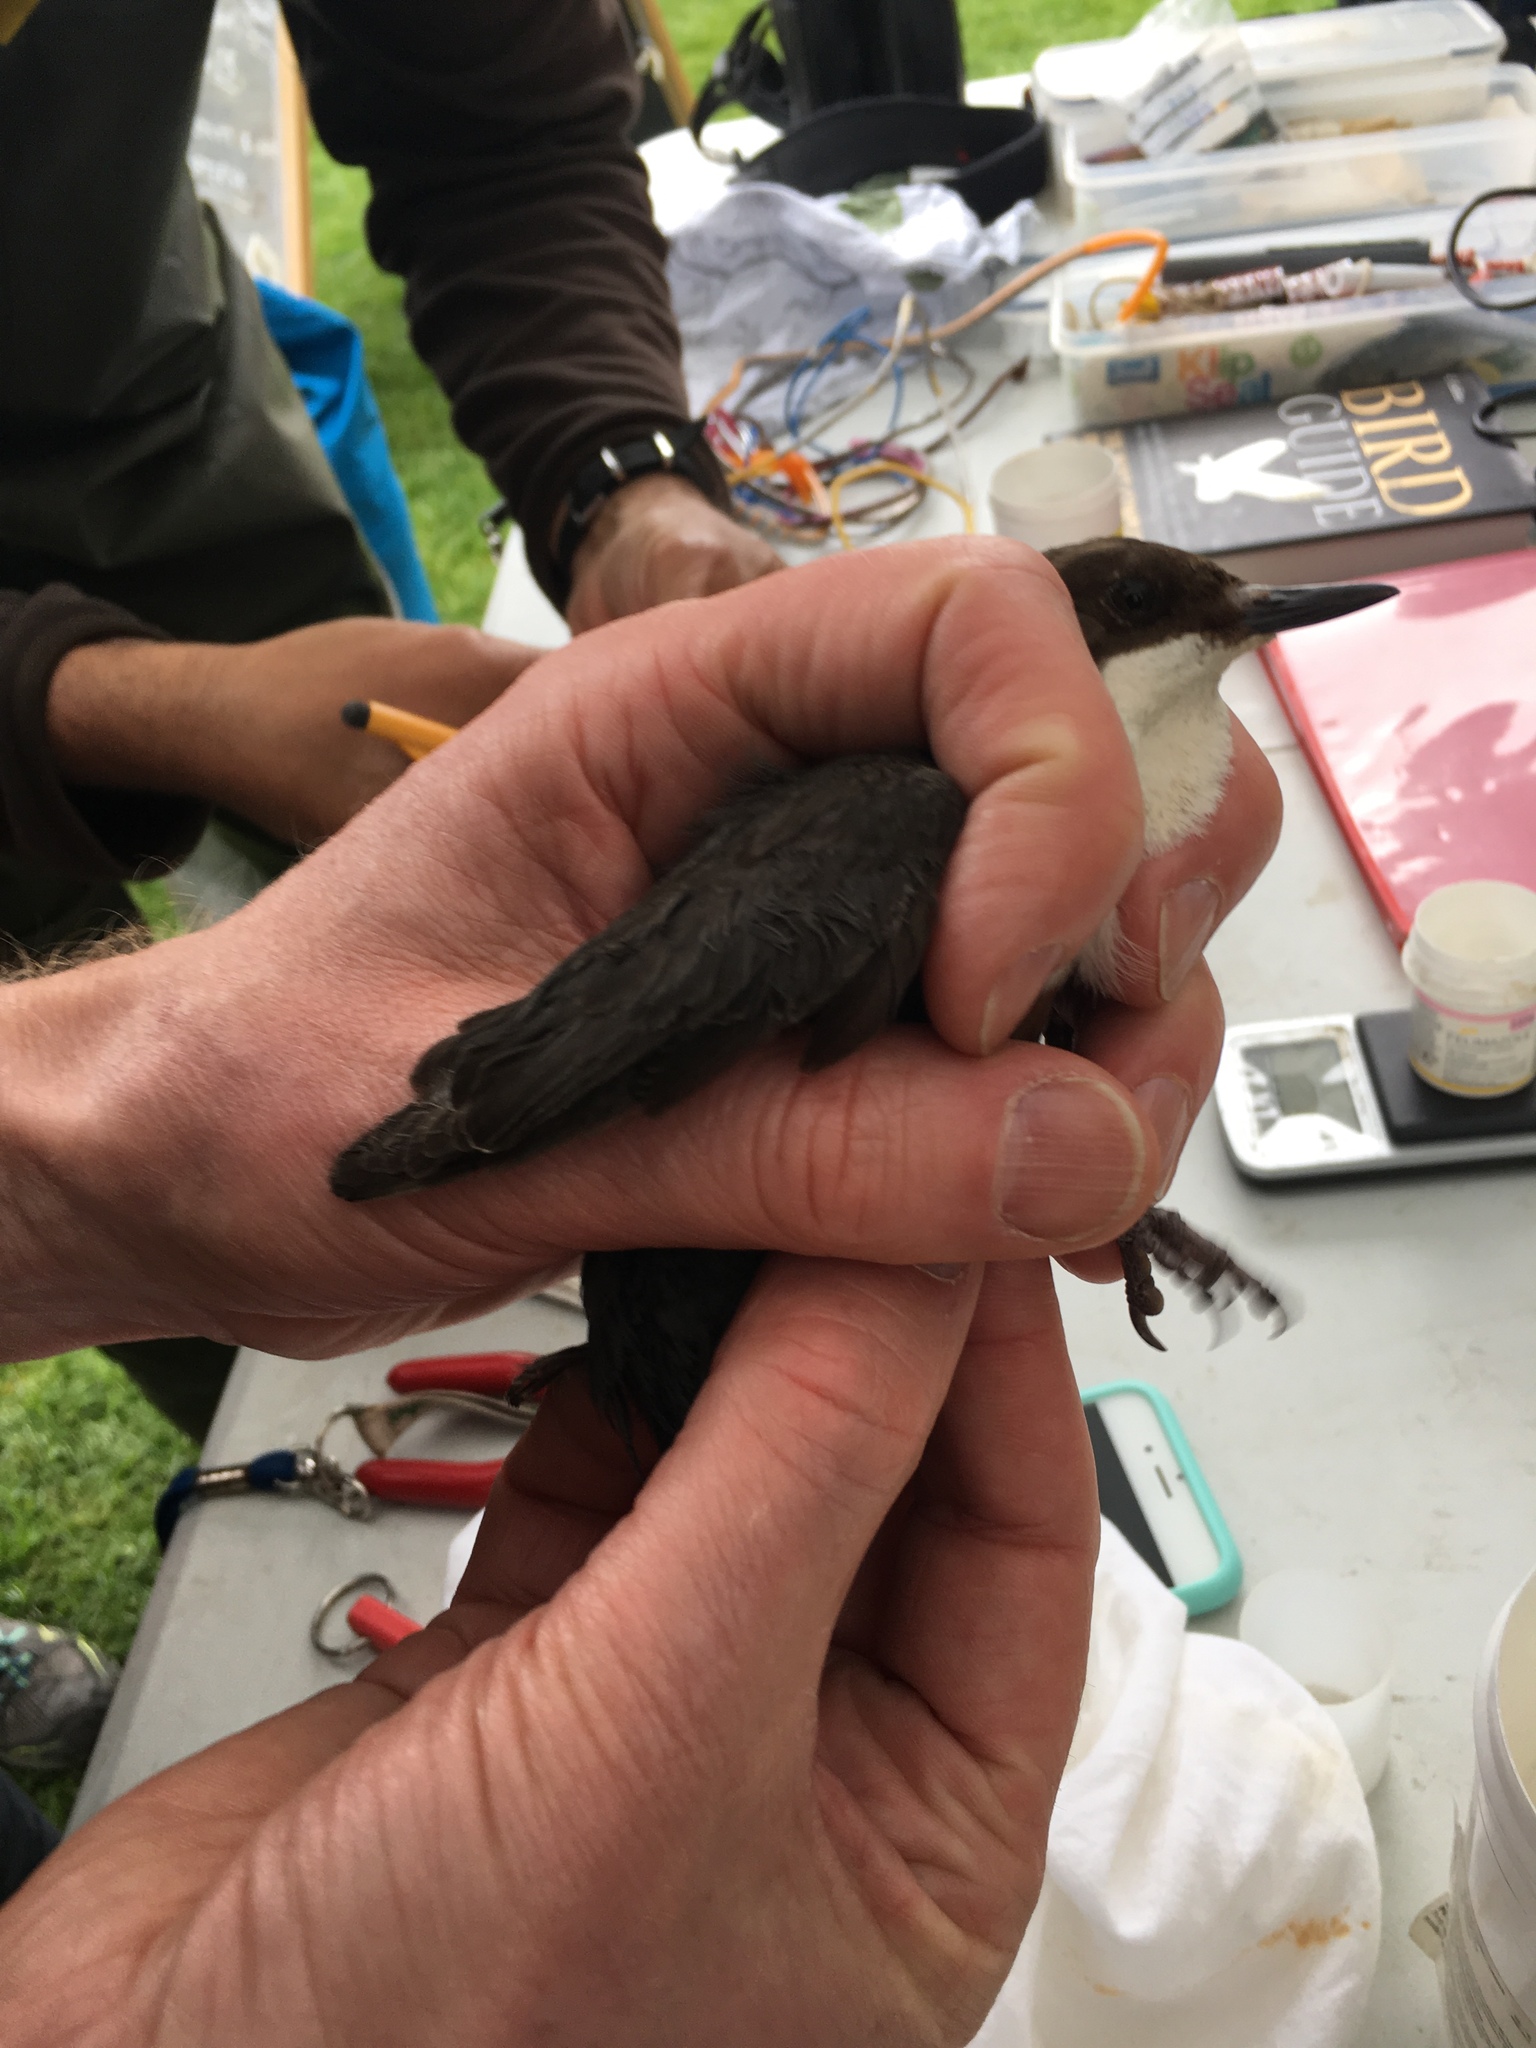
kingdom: Animalia
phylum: Chordata
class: Aves
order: Passeriformes
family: Cinclidae
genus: Cinclus
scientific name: Cinclus cinclus
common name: White-throated dipper
